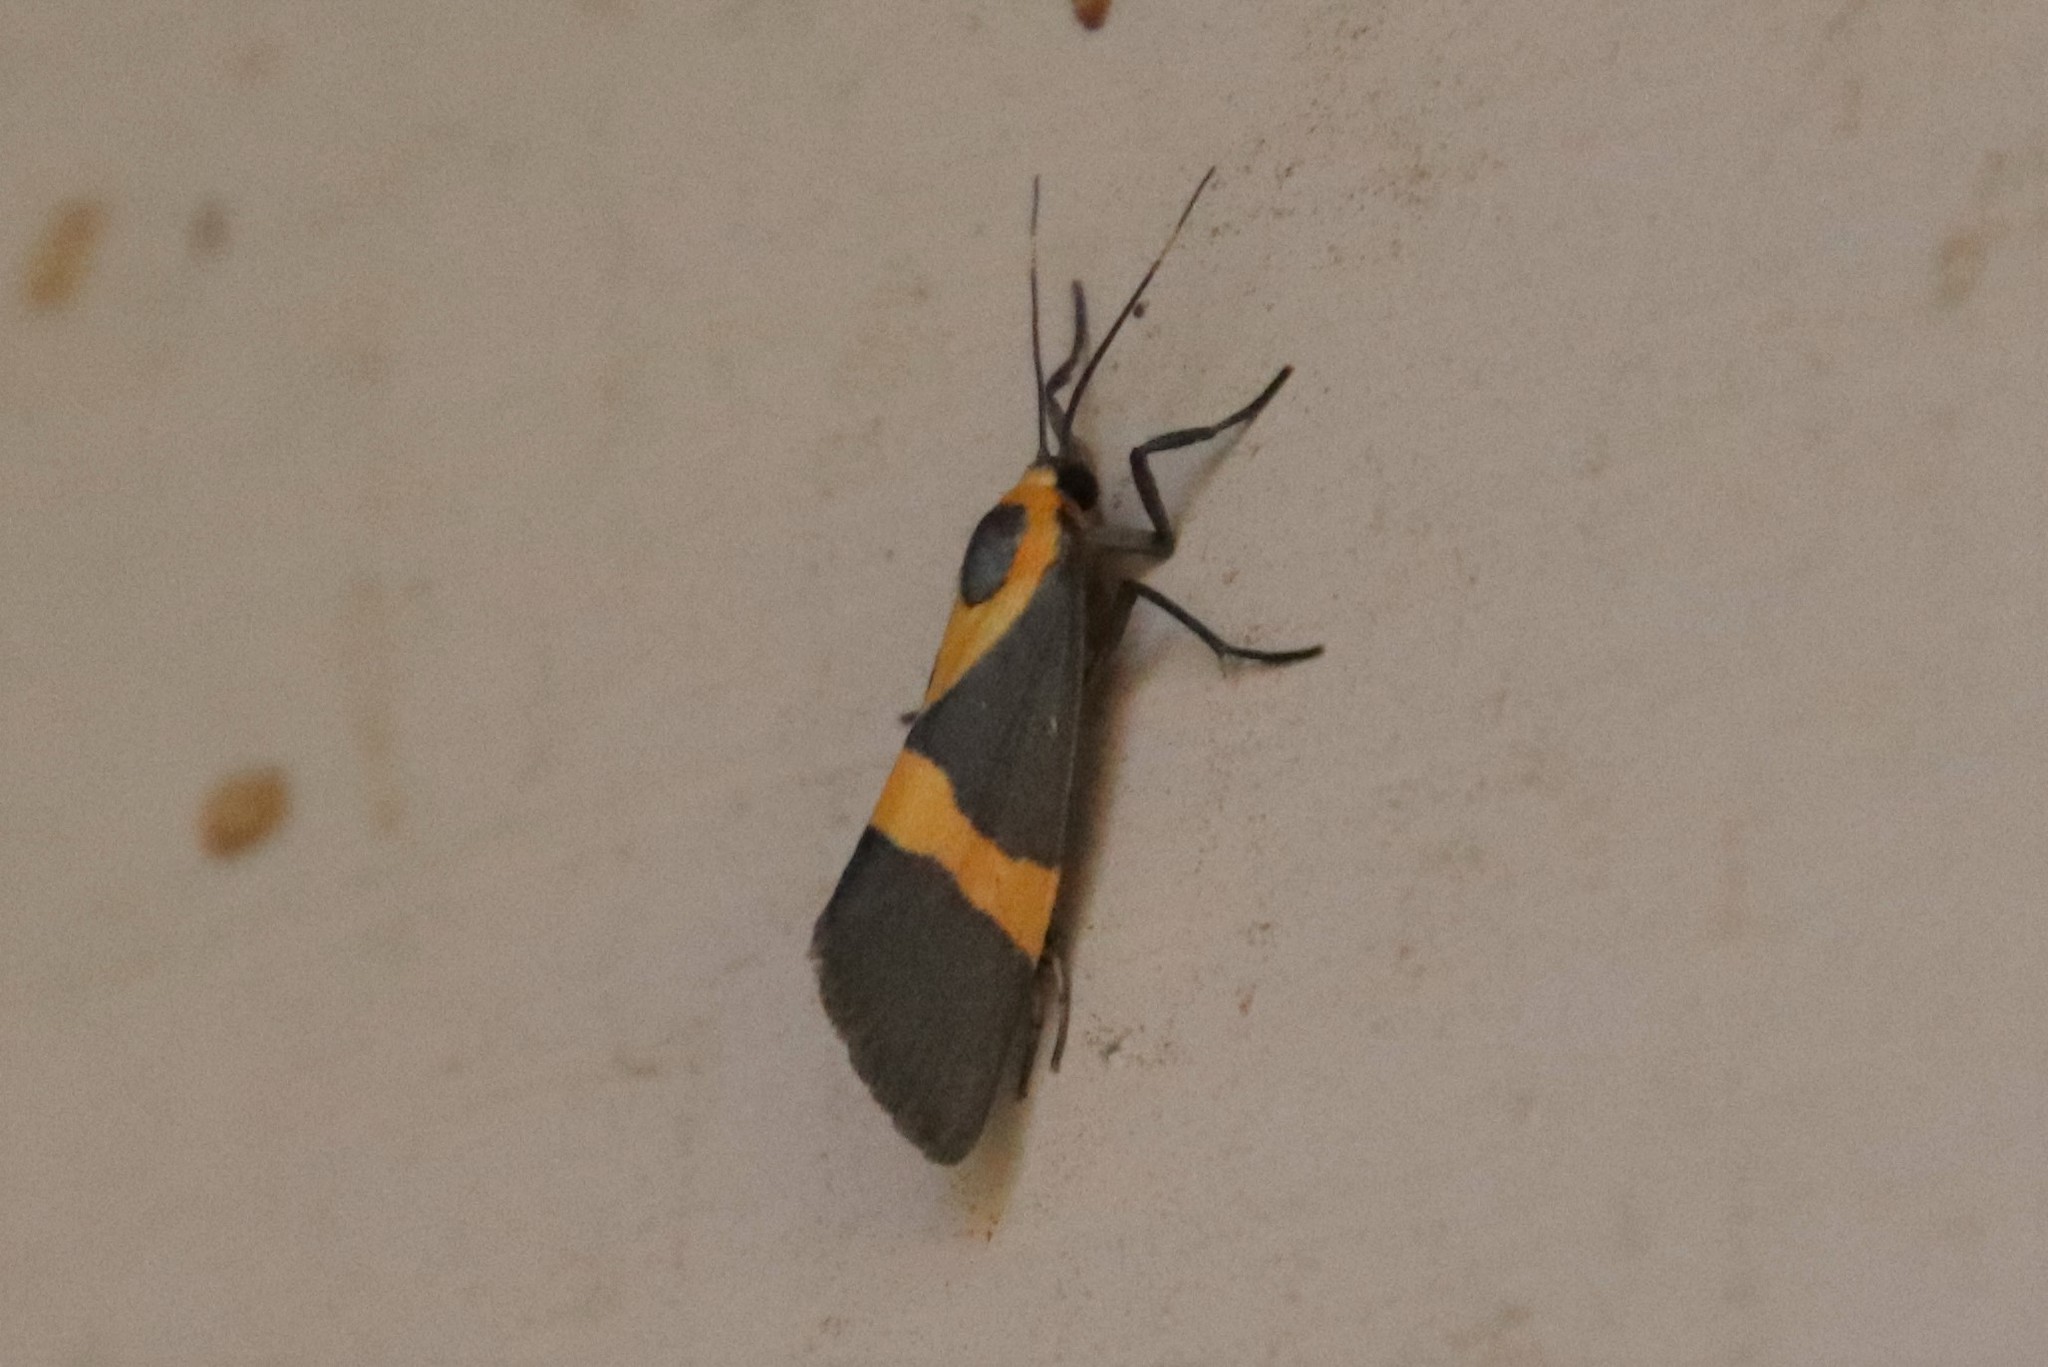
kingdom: Animalia
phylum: Arthropoda
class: Insecta
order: Lepidoptera
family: Erebidae
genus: Cisthene
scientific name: Cisthene tenuifascia
